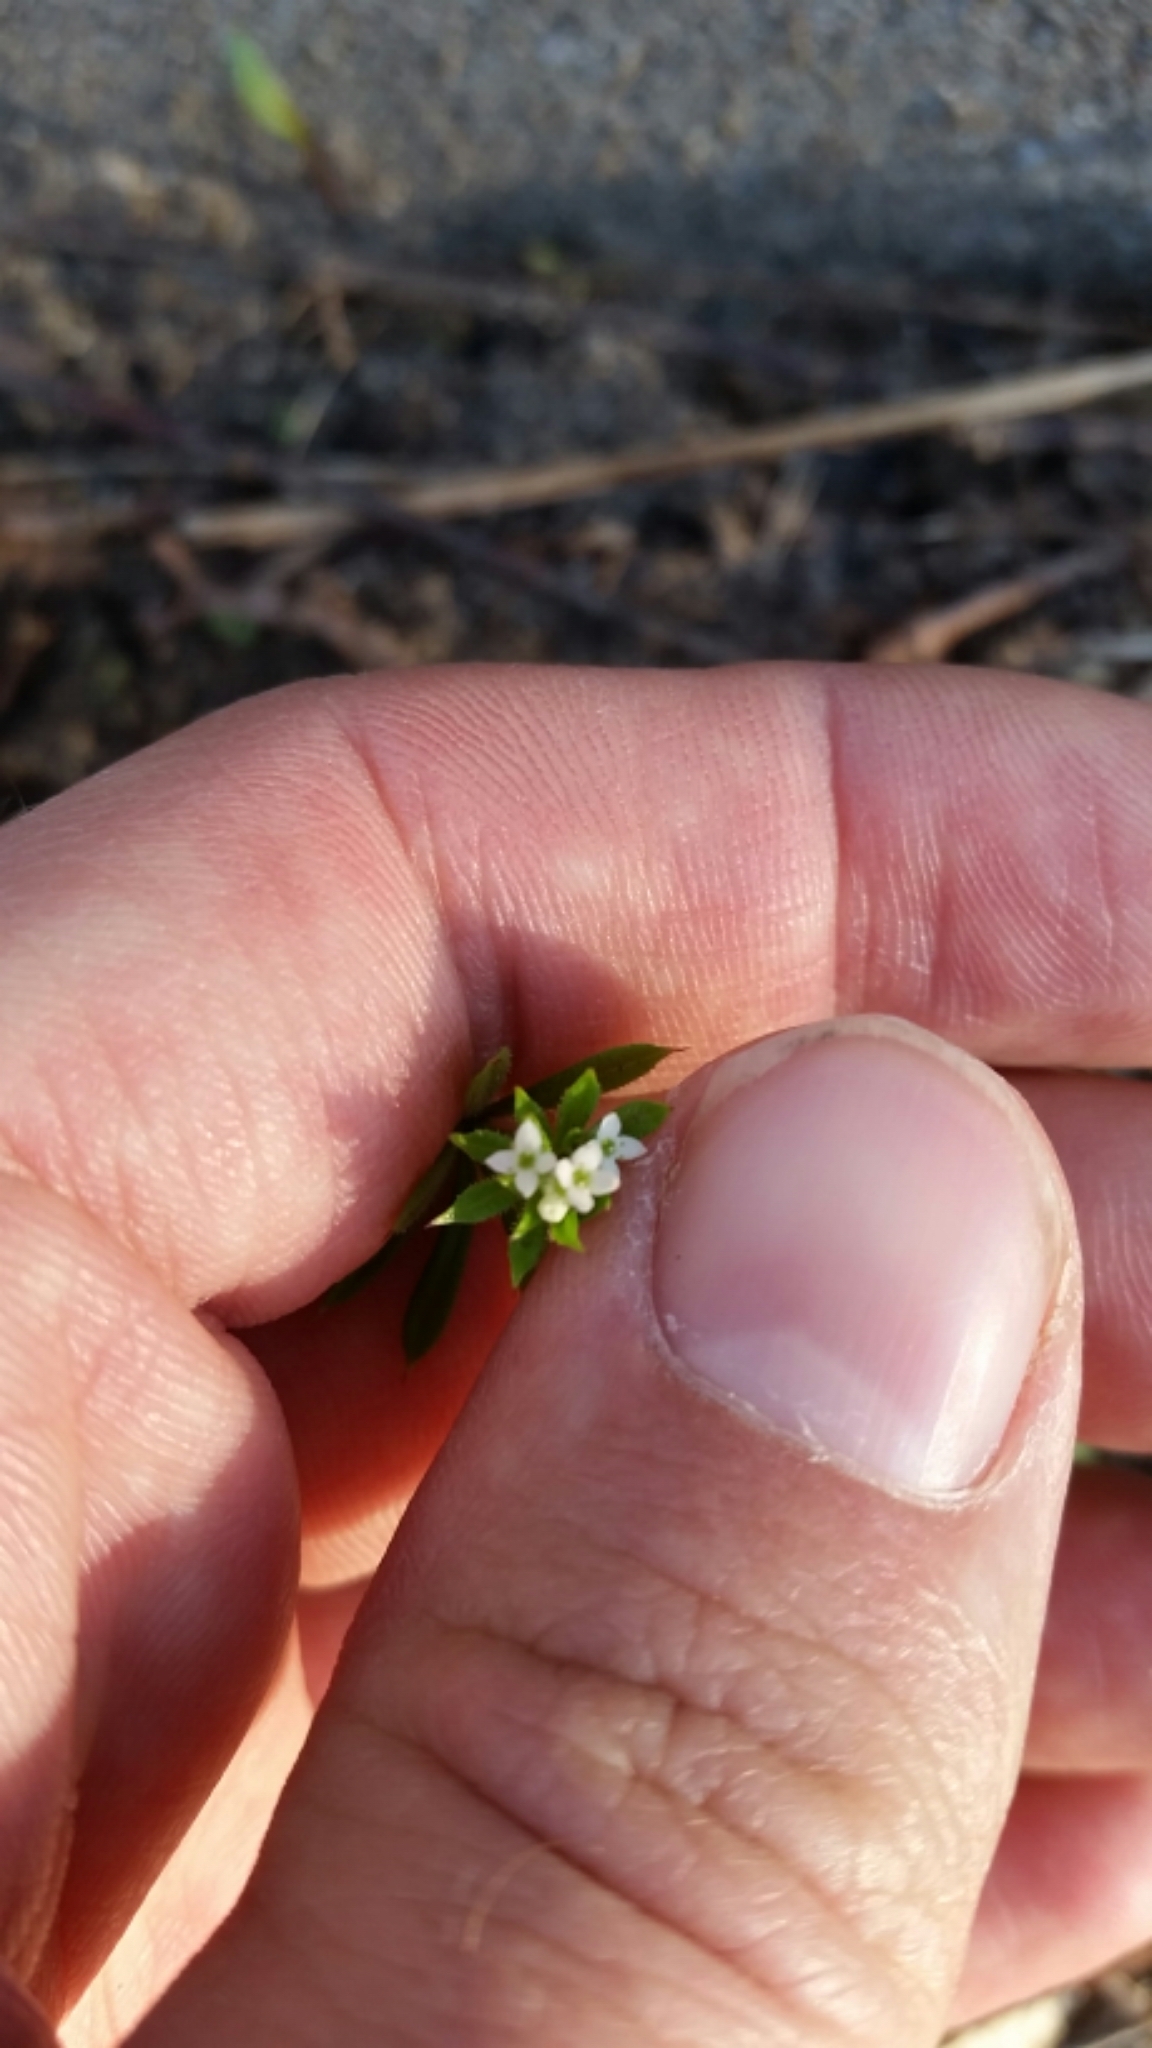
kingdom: Plantae
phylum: Tracheophyta
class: Magnoliopsida
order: Gentianales
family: Rubiaceae
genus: Galium
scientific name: Galium aparine
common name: Cleavers
